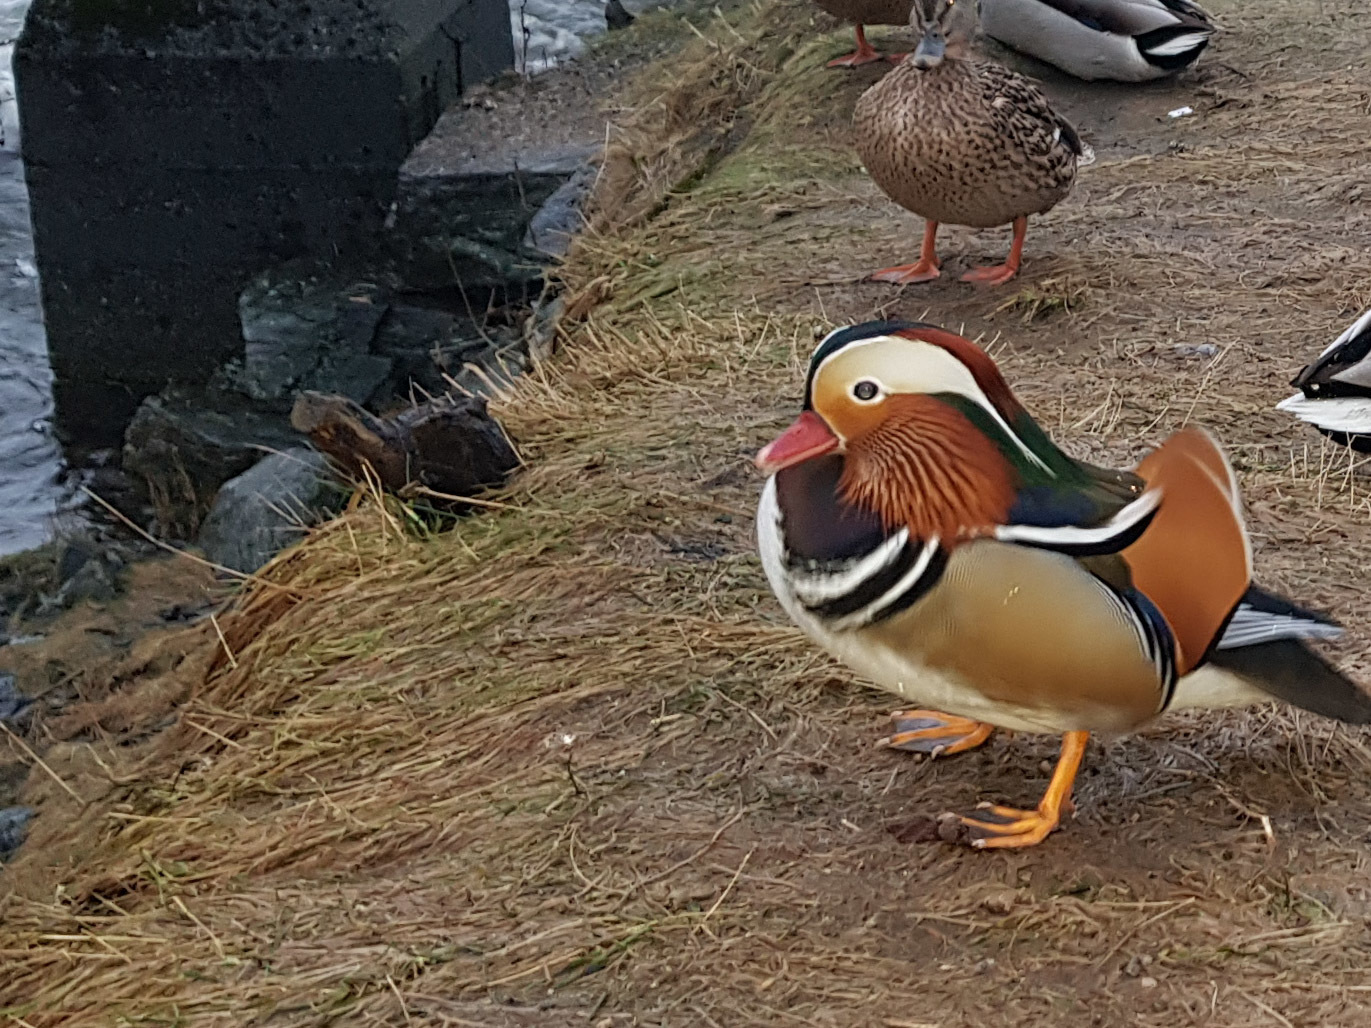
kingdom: Animalia
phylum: Chordata
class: Aves
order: Anseriformes
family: Anatidae
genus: Aix
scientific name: Aix galericulata
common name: Mandarin duck
